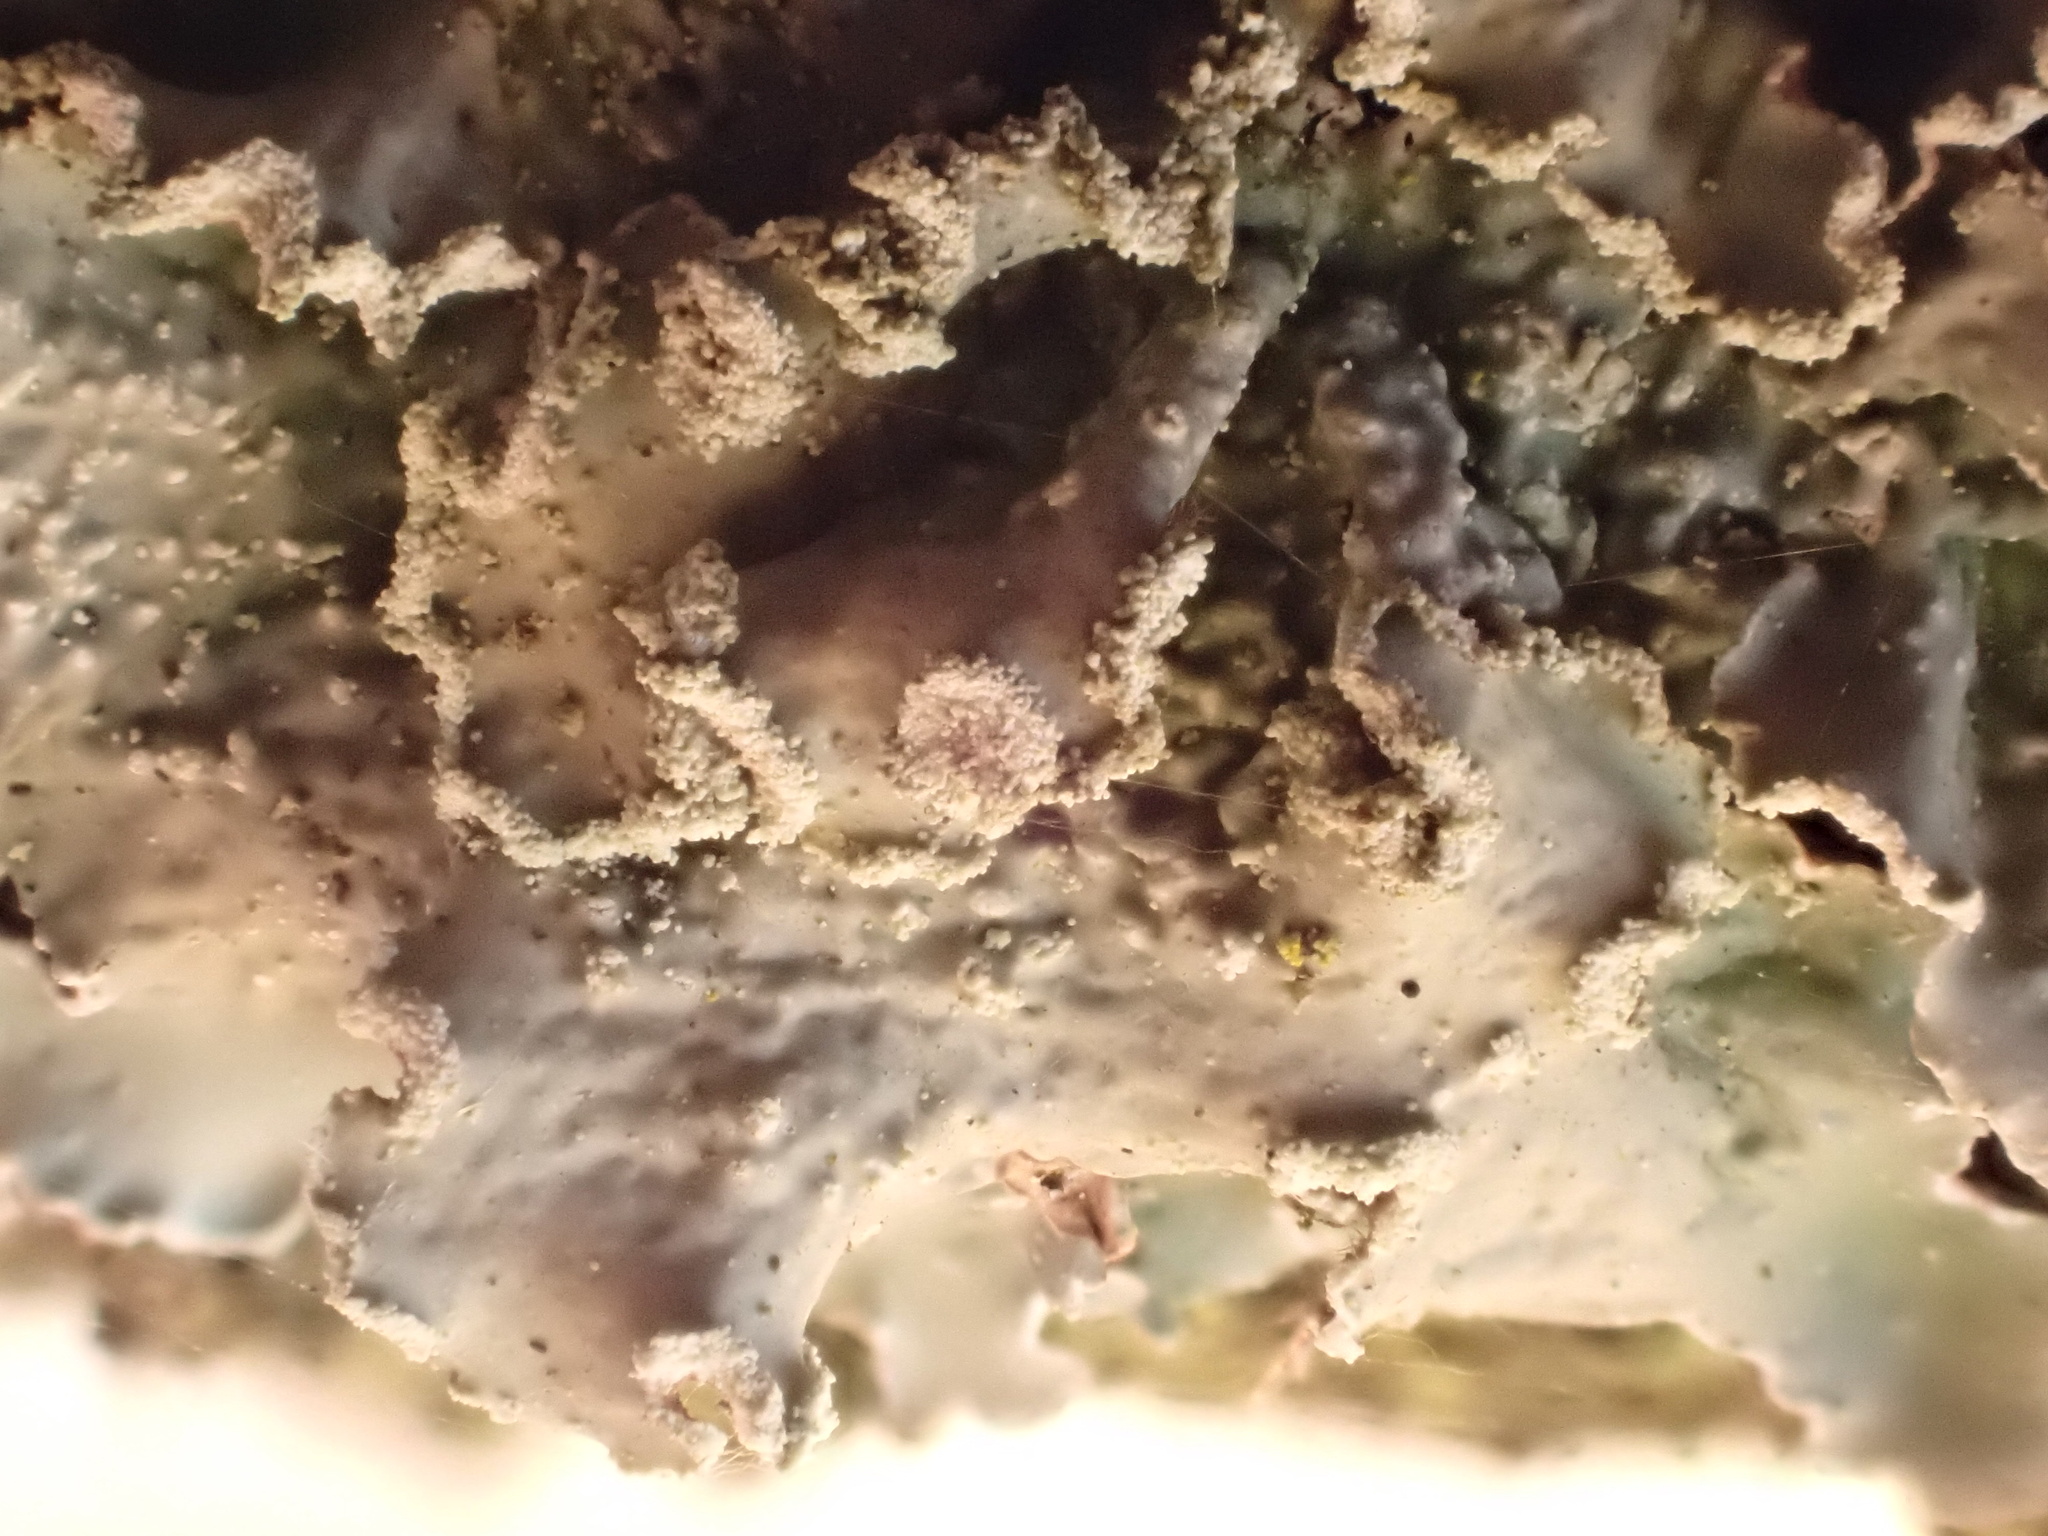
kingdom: Fungi
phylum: Ascomycota
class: Lecanoromycetes
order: Lecanorales
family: Parmeliaceae
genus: Punctelia
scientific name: Punctelia jeckeri
